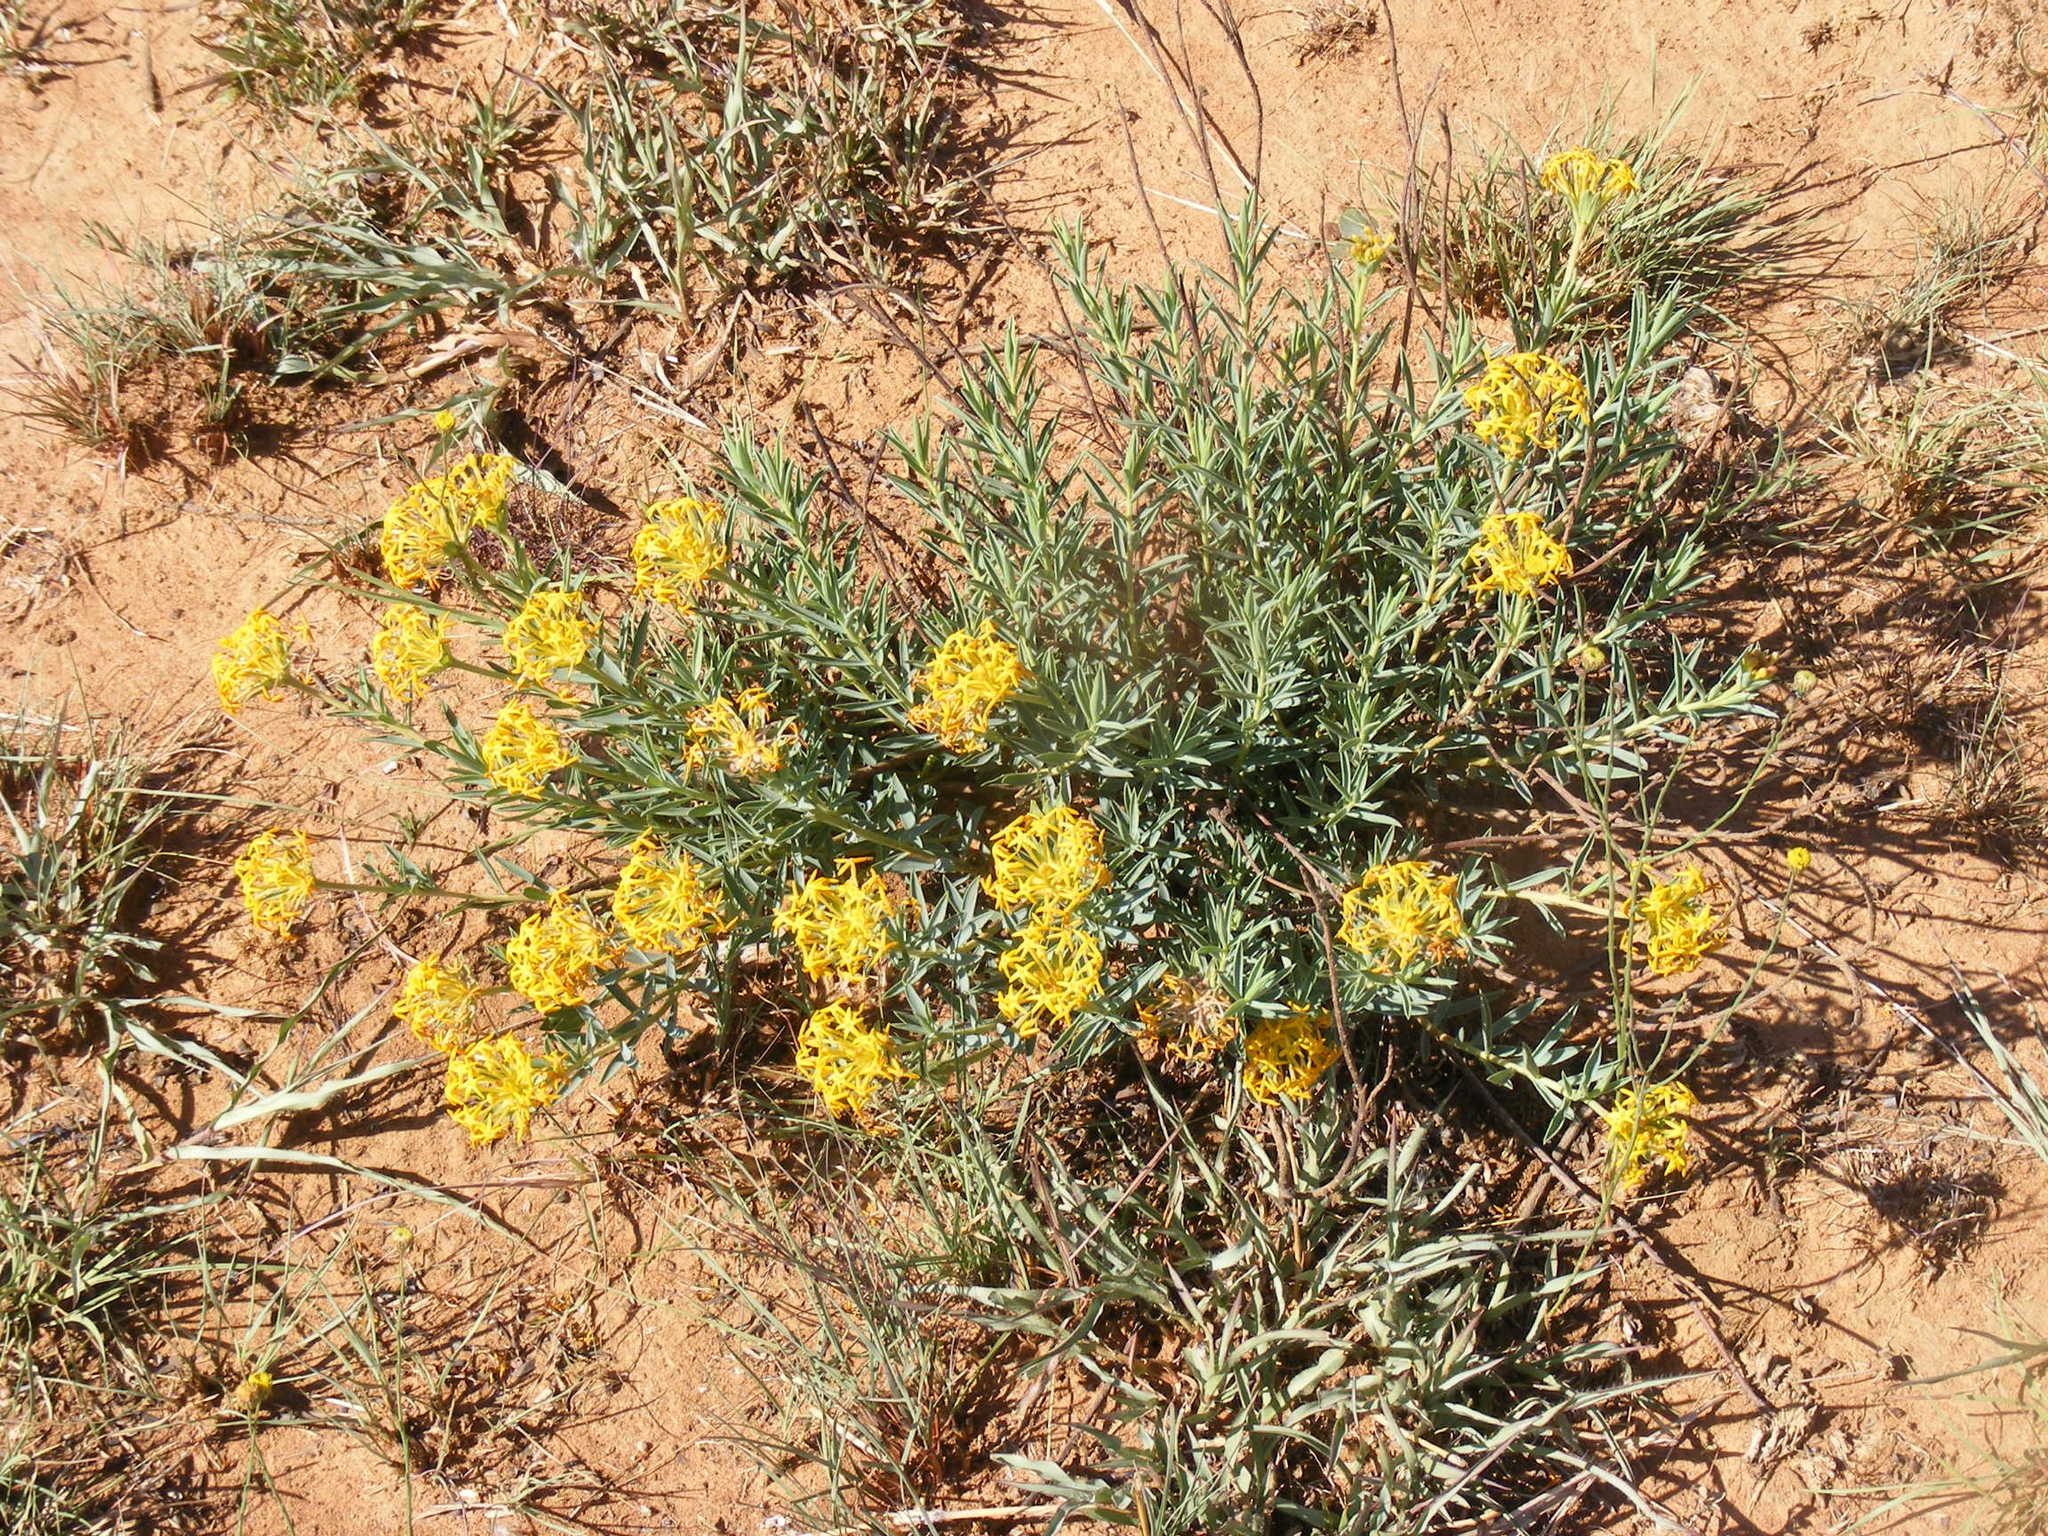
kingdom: Plantae
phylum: Tracheophyta
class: Magnoliopsida
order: Malvales
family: Thymelaeaceae
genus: Gnidia
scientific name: Gnidia capitata
